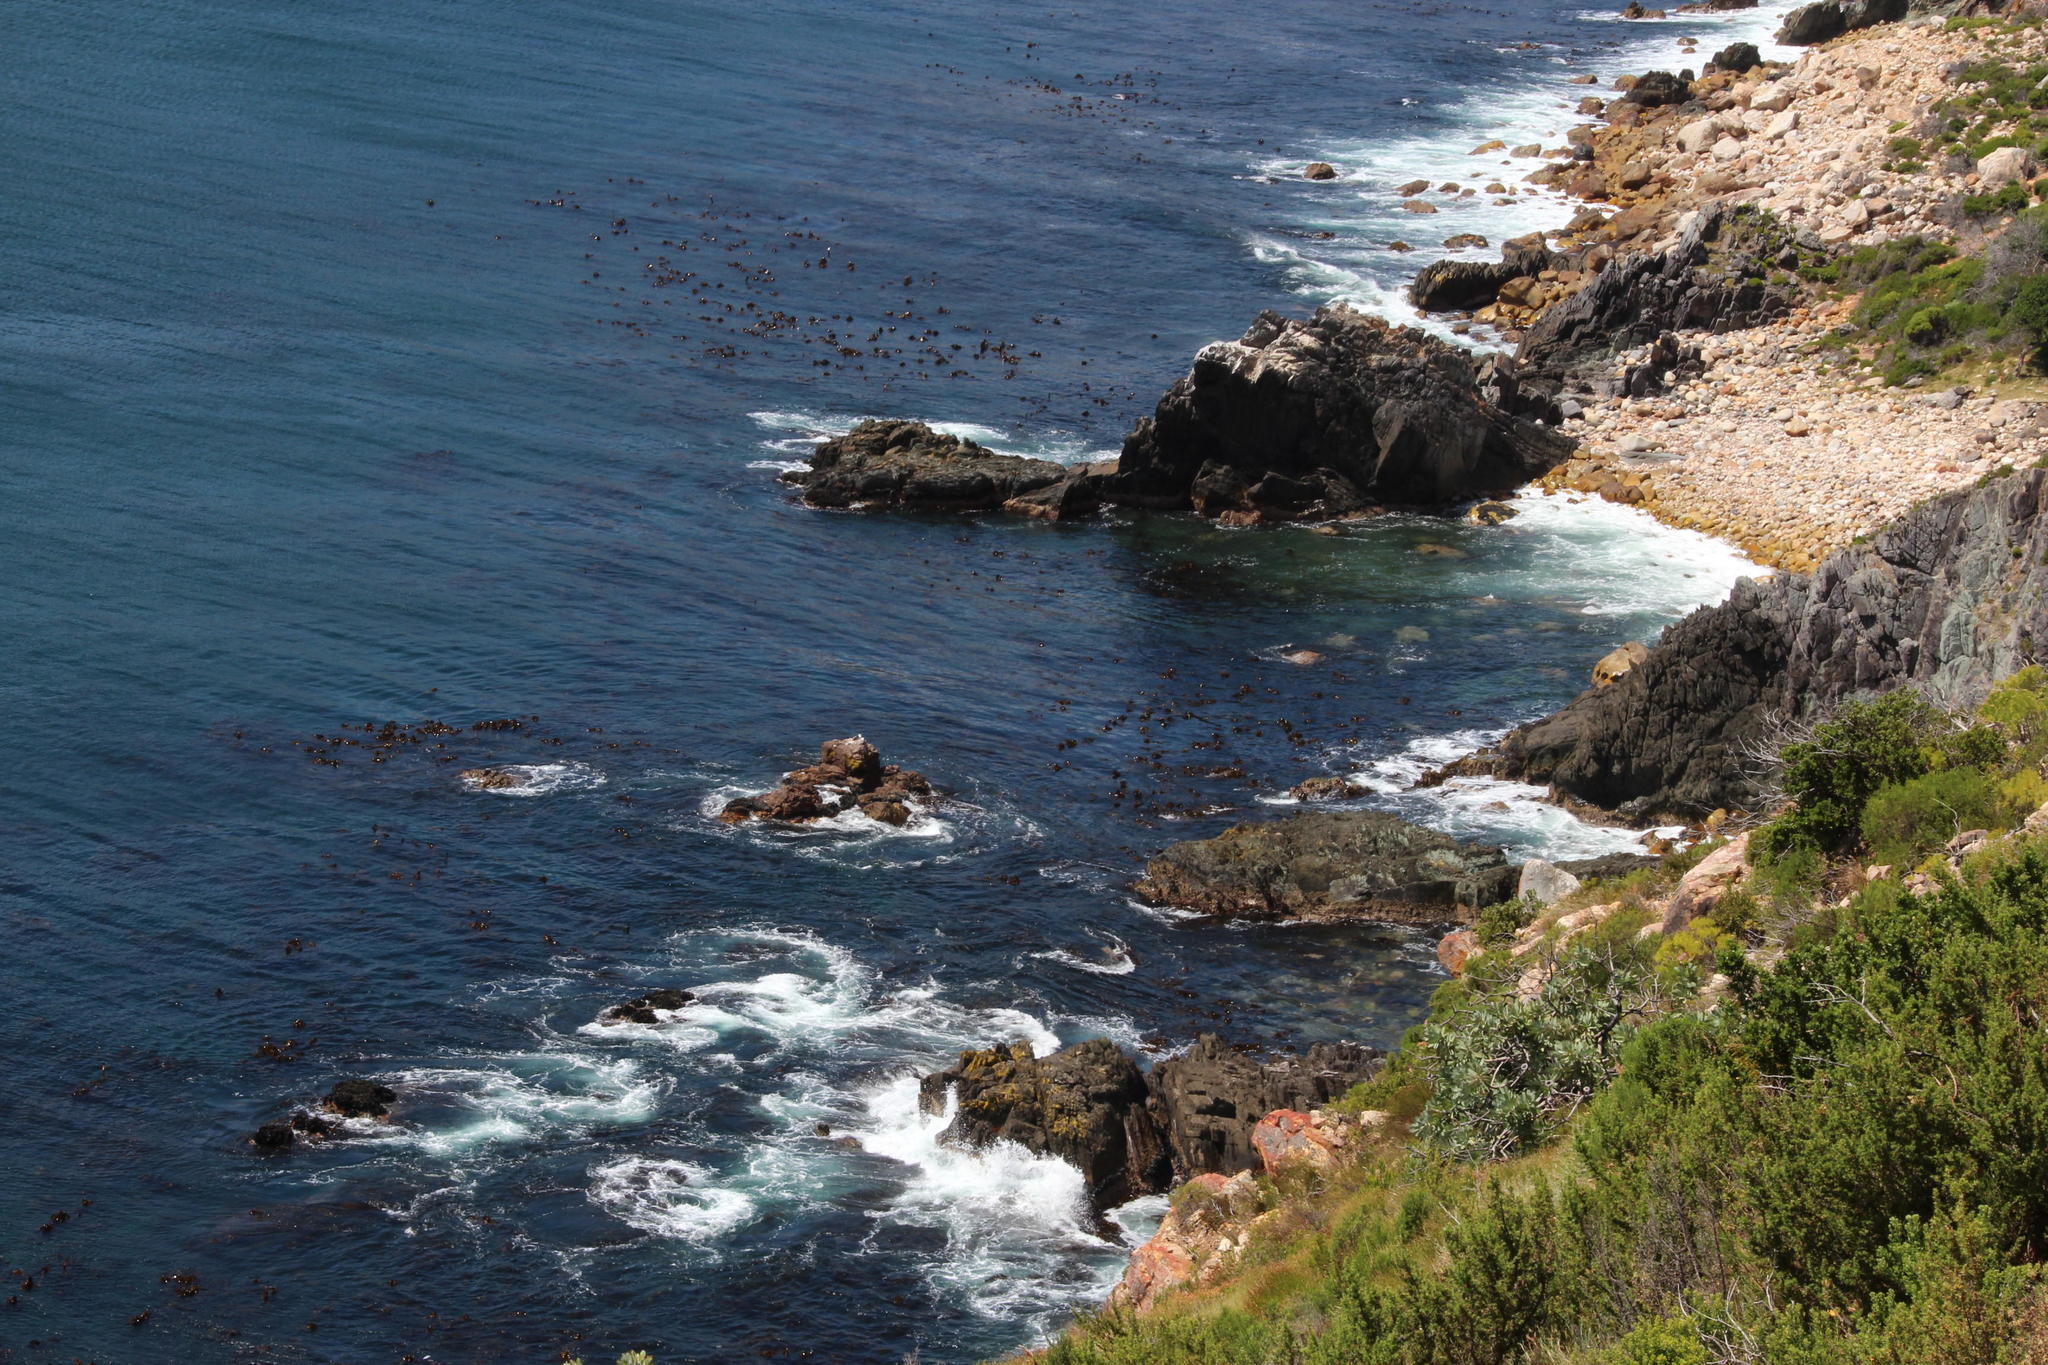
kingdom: Chromista
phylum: Ochrophyta
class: Phaeophyceae
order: Laminariales
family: Lessoniaceae
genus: Ecklonia
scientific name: Ecklonia
